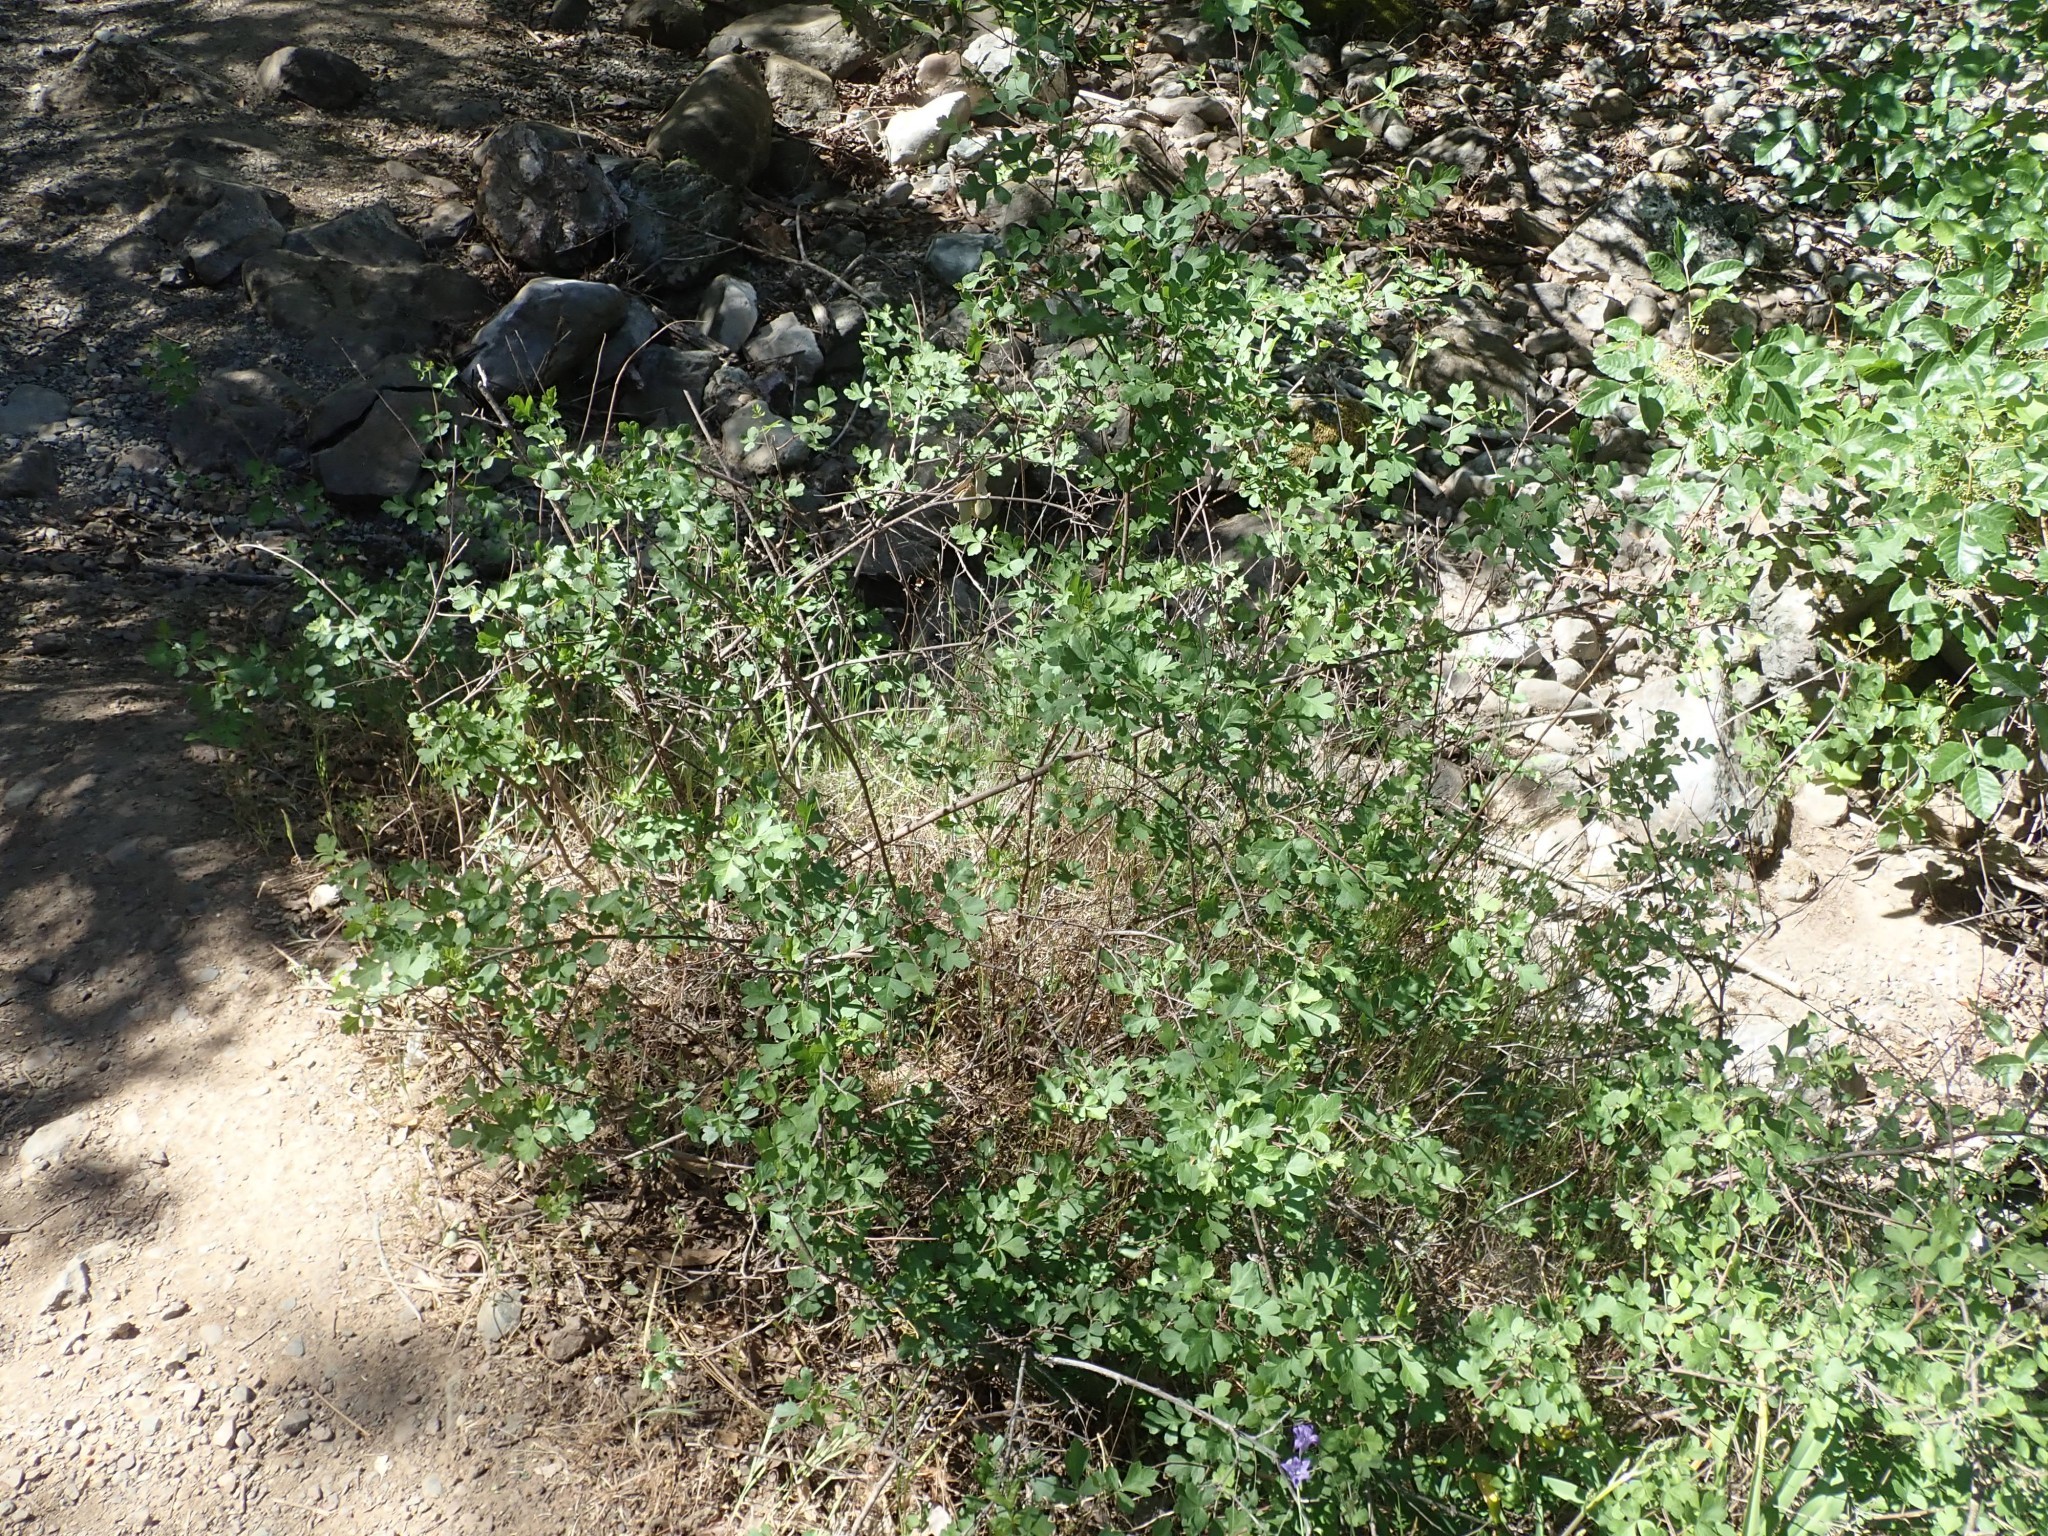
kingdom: Plantae
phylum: Tracheophyta
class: Magnoliopsida
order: Sapindales
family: Anacardiaceae
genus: Rhus
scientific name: Rhus aromatica
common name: Aromatic sumac
